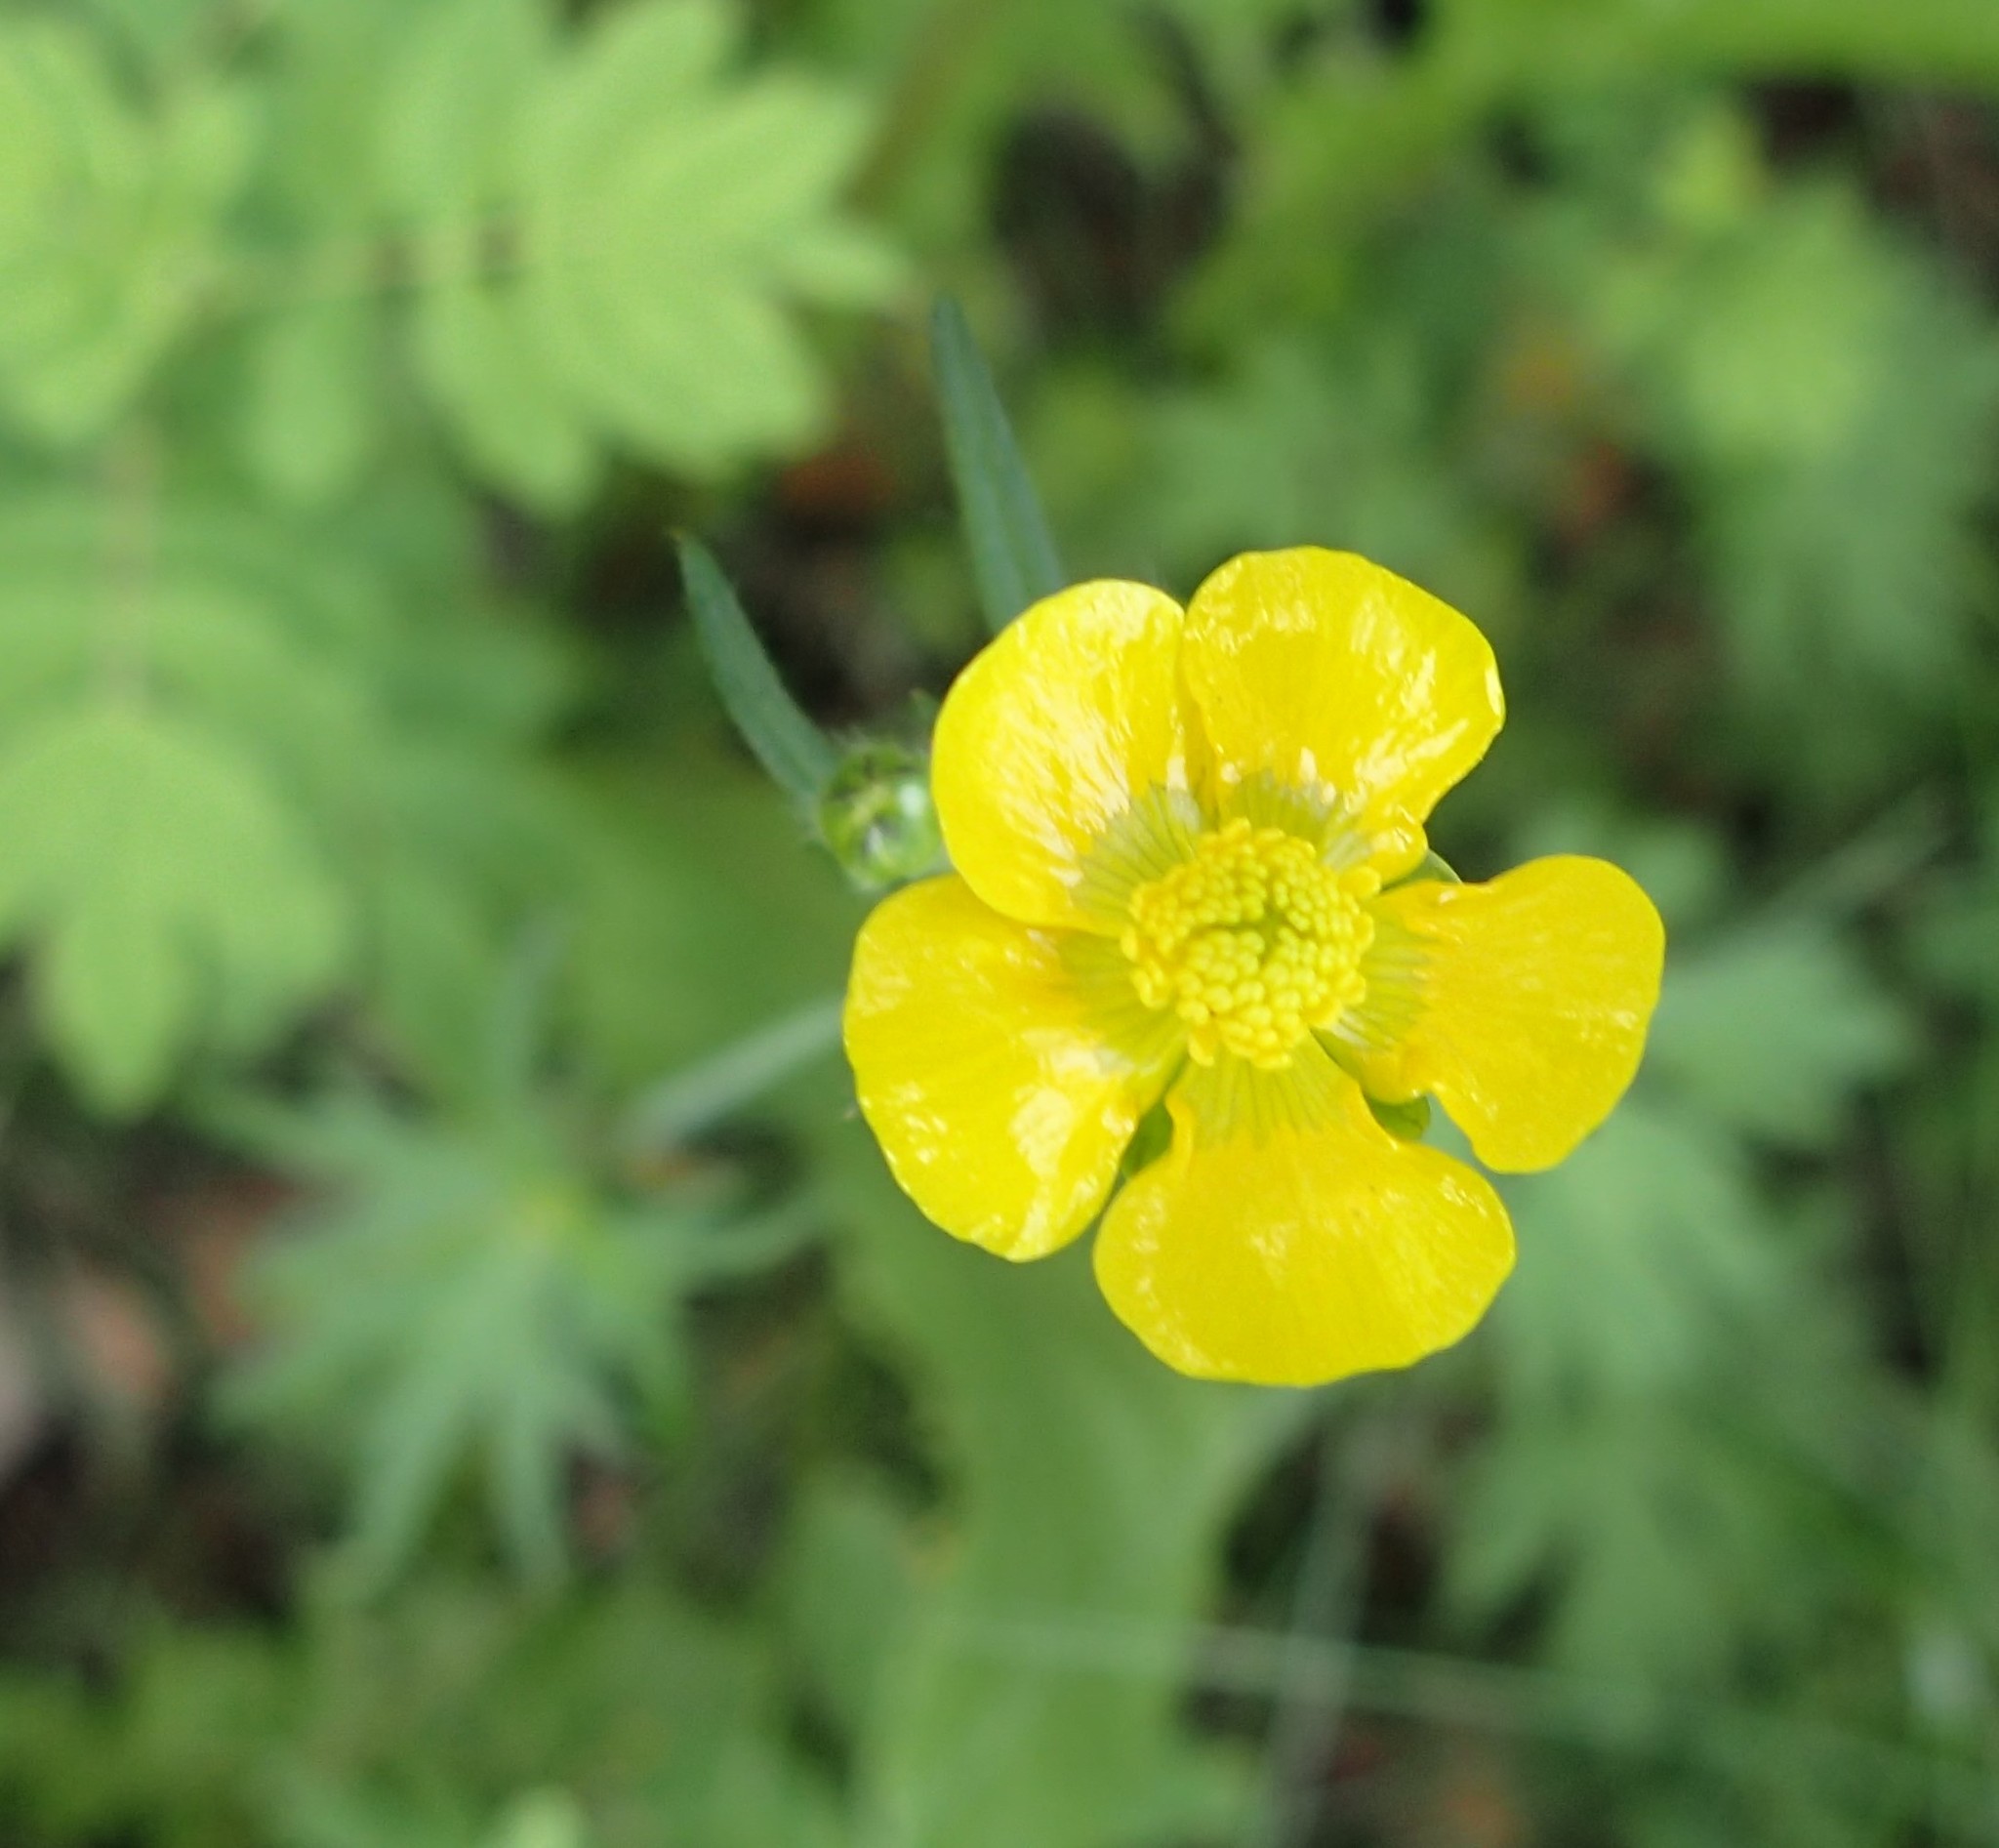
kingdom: Plantae
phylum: Tracheophyta
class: Magnoliopsida
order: Ranunculales
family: Ranunculaceae
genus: Ranunculus
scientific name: Ranunculus acris
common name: Meadow buttercup
